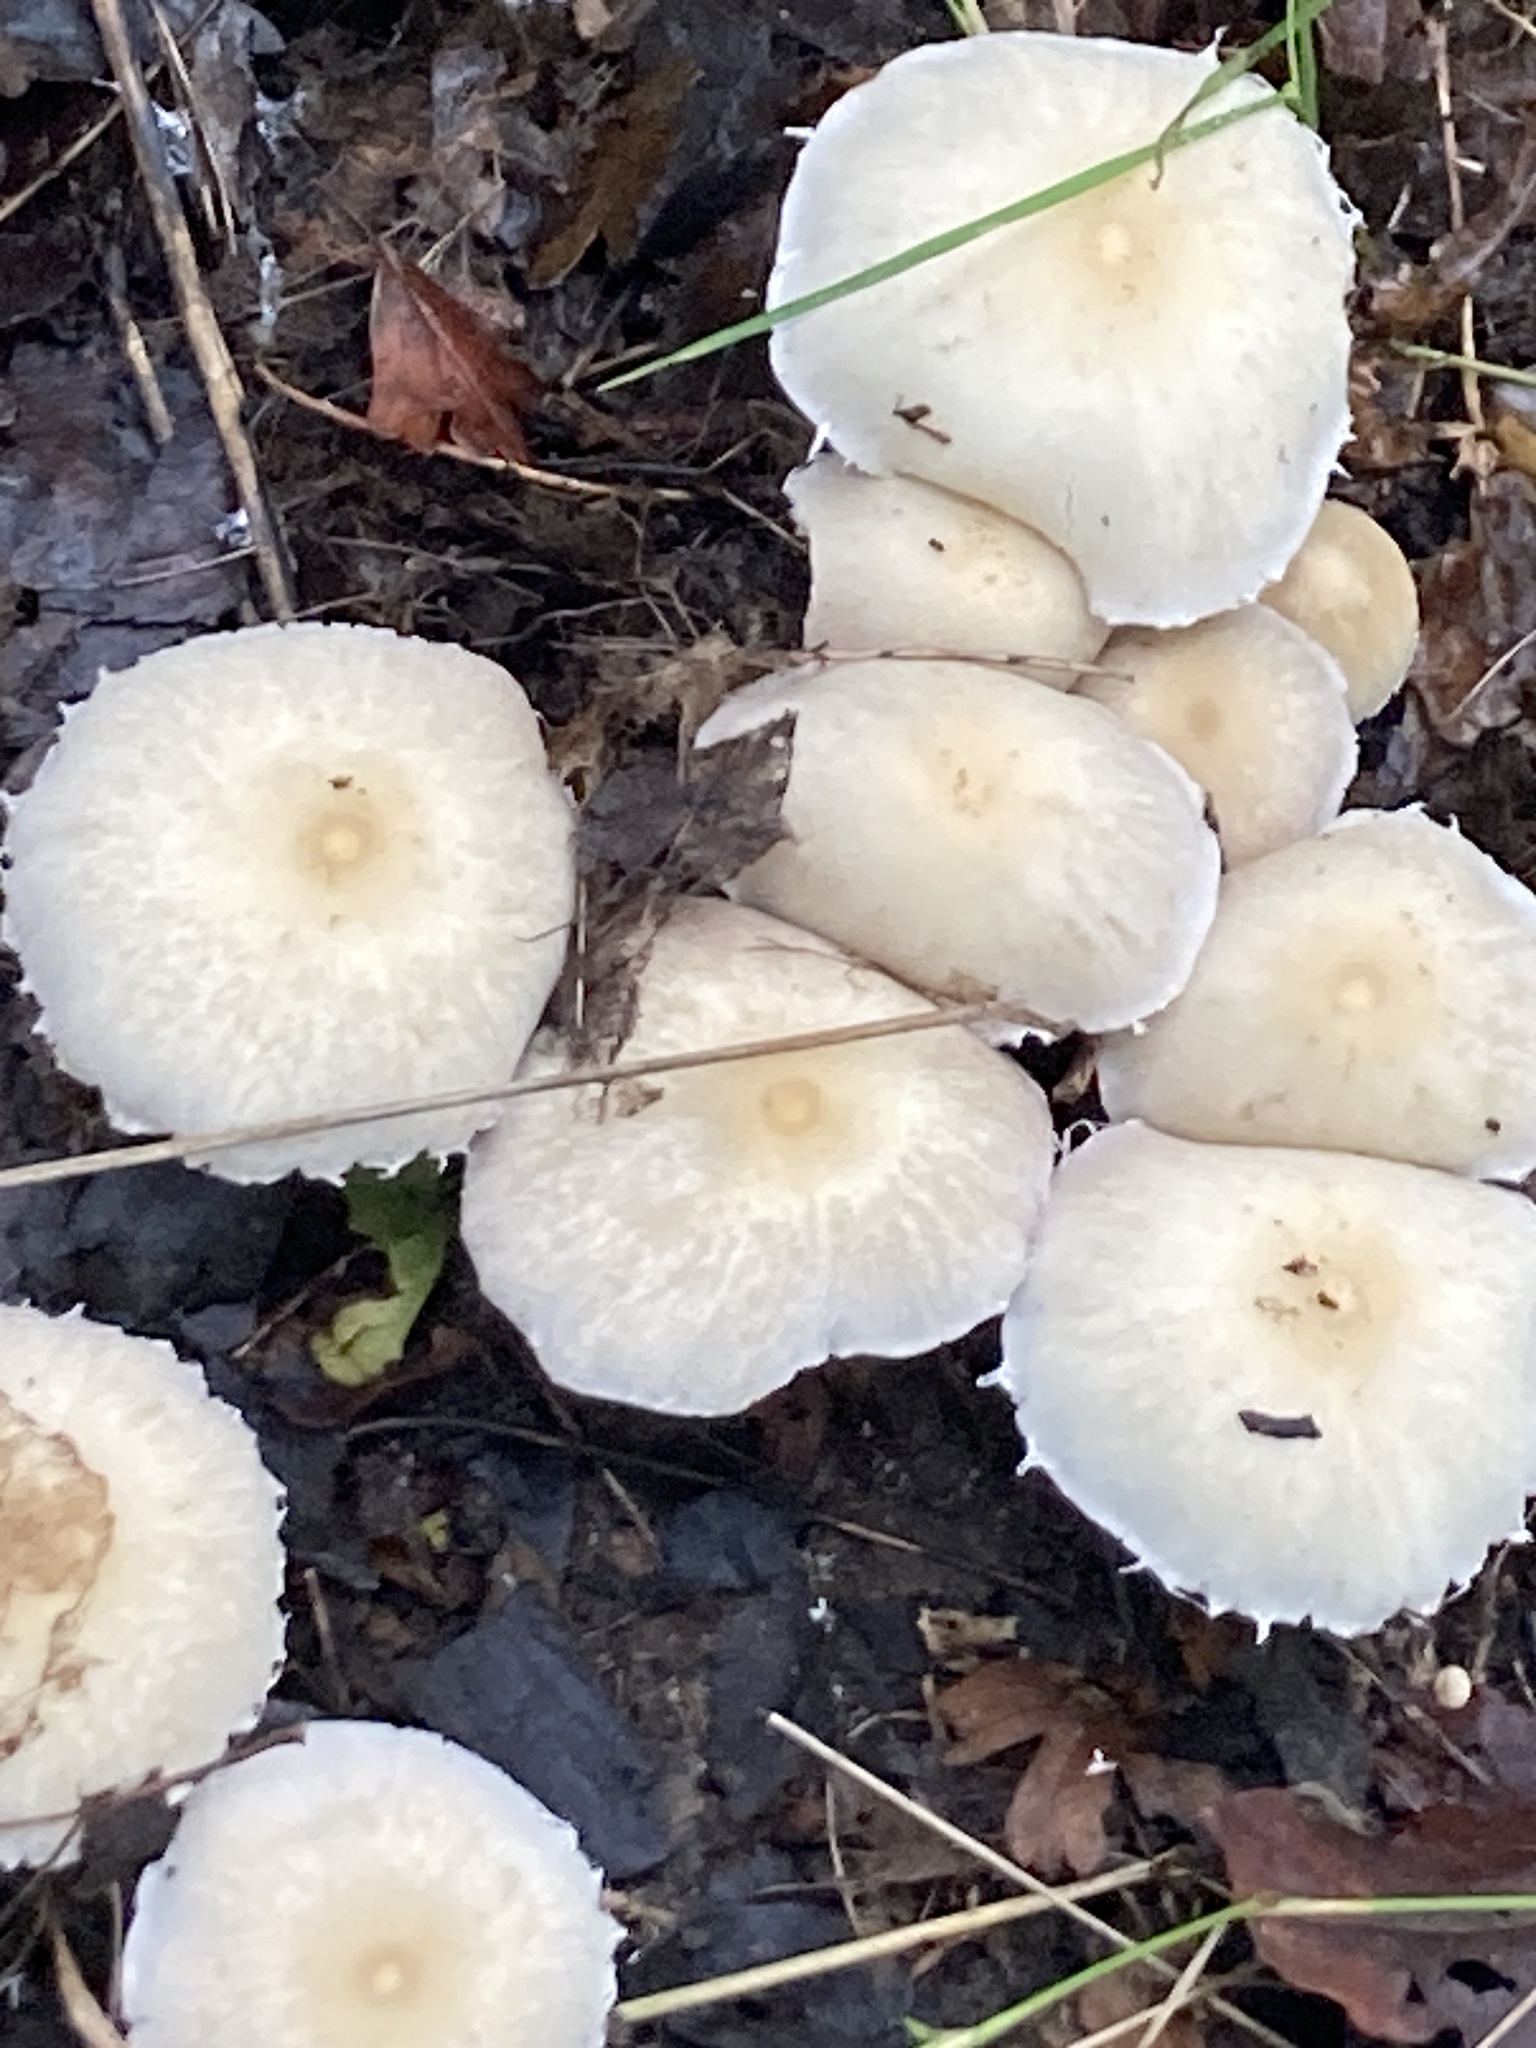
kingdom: Fungi
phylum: Basidiomycota
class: Agaricomycetes
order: Agaricales
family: Psathyrellaceae
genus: Candolleomyces
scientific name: Candolleomyces candolleanus
